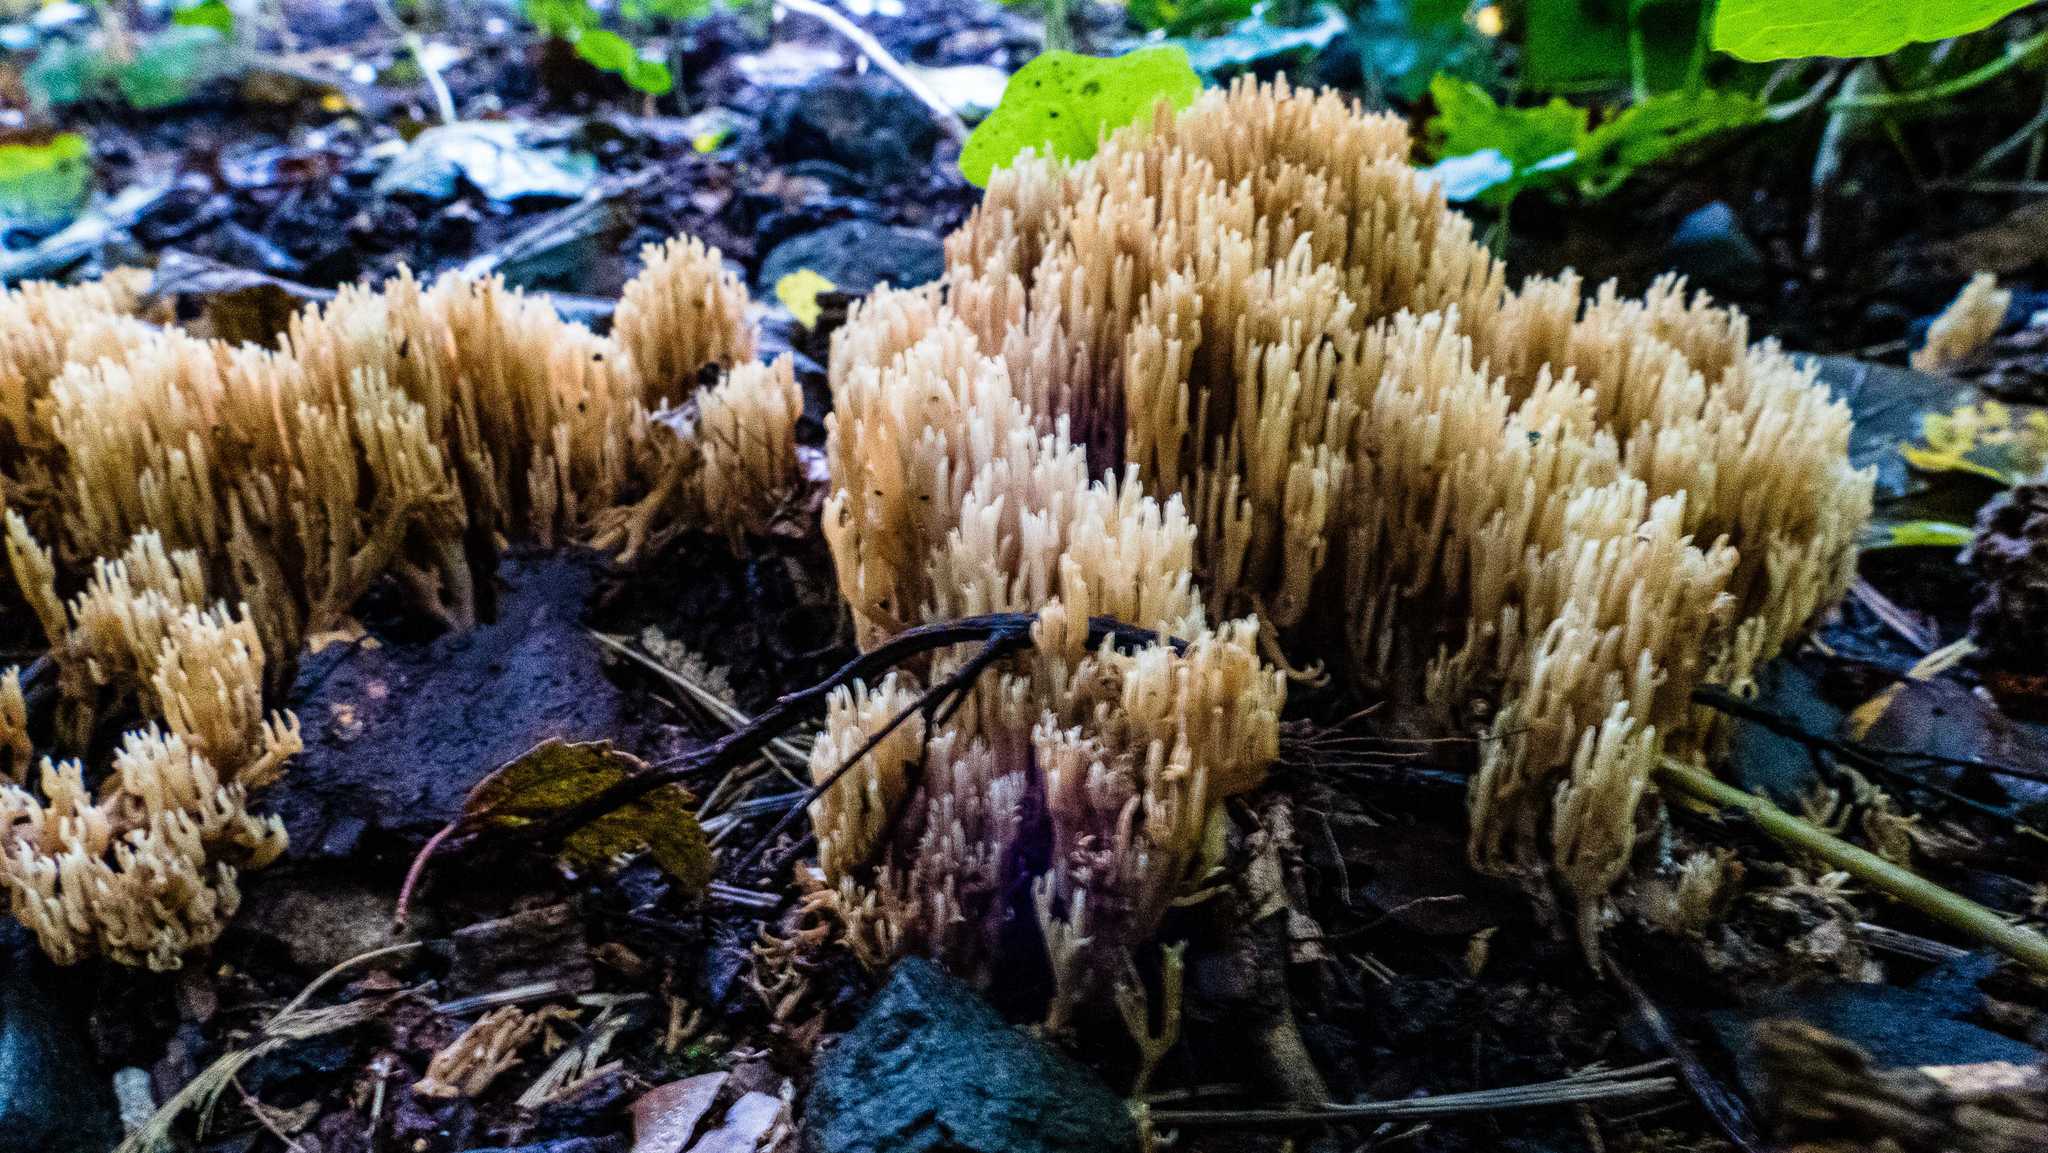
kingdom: Fungi
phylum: Basidiomycota
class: Agaricomycetes
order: Gomphales
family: Gomphaceae
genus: Ramaria
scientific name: Ramaria stricta
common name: Upright coral
